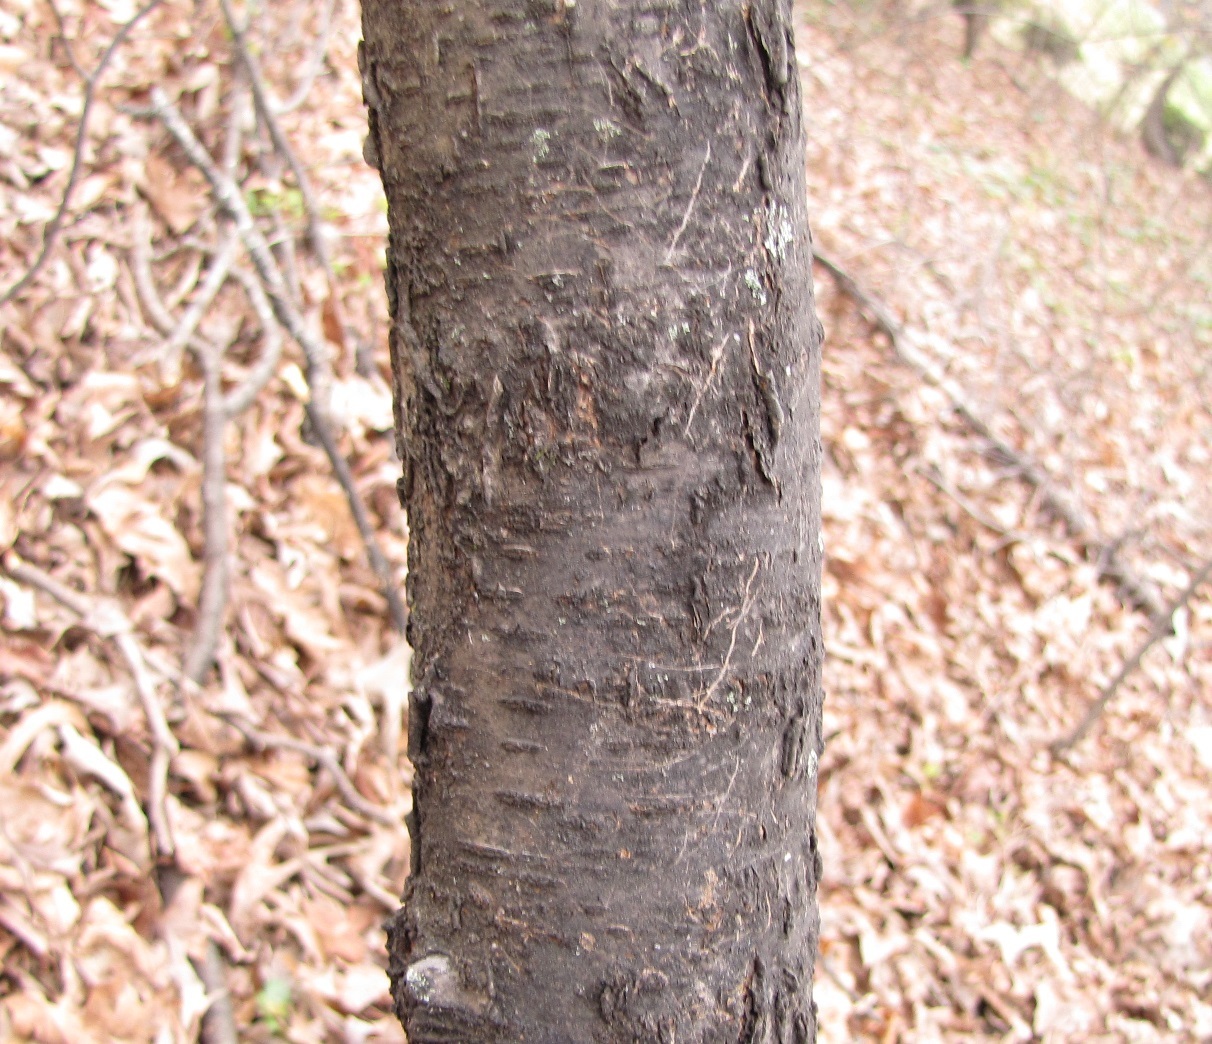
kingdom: Plantae
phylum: Tracheophyta
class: Magnoliopsida
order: Rosales
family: Rosaceae
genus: Prunus
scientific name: Prunus serotina
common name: Black cherry
